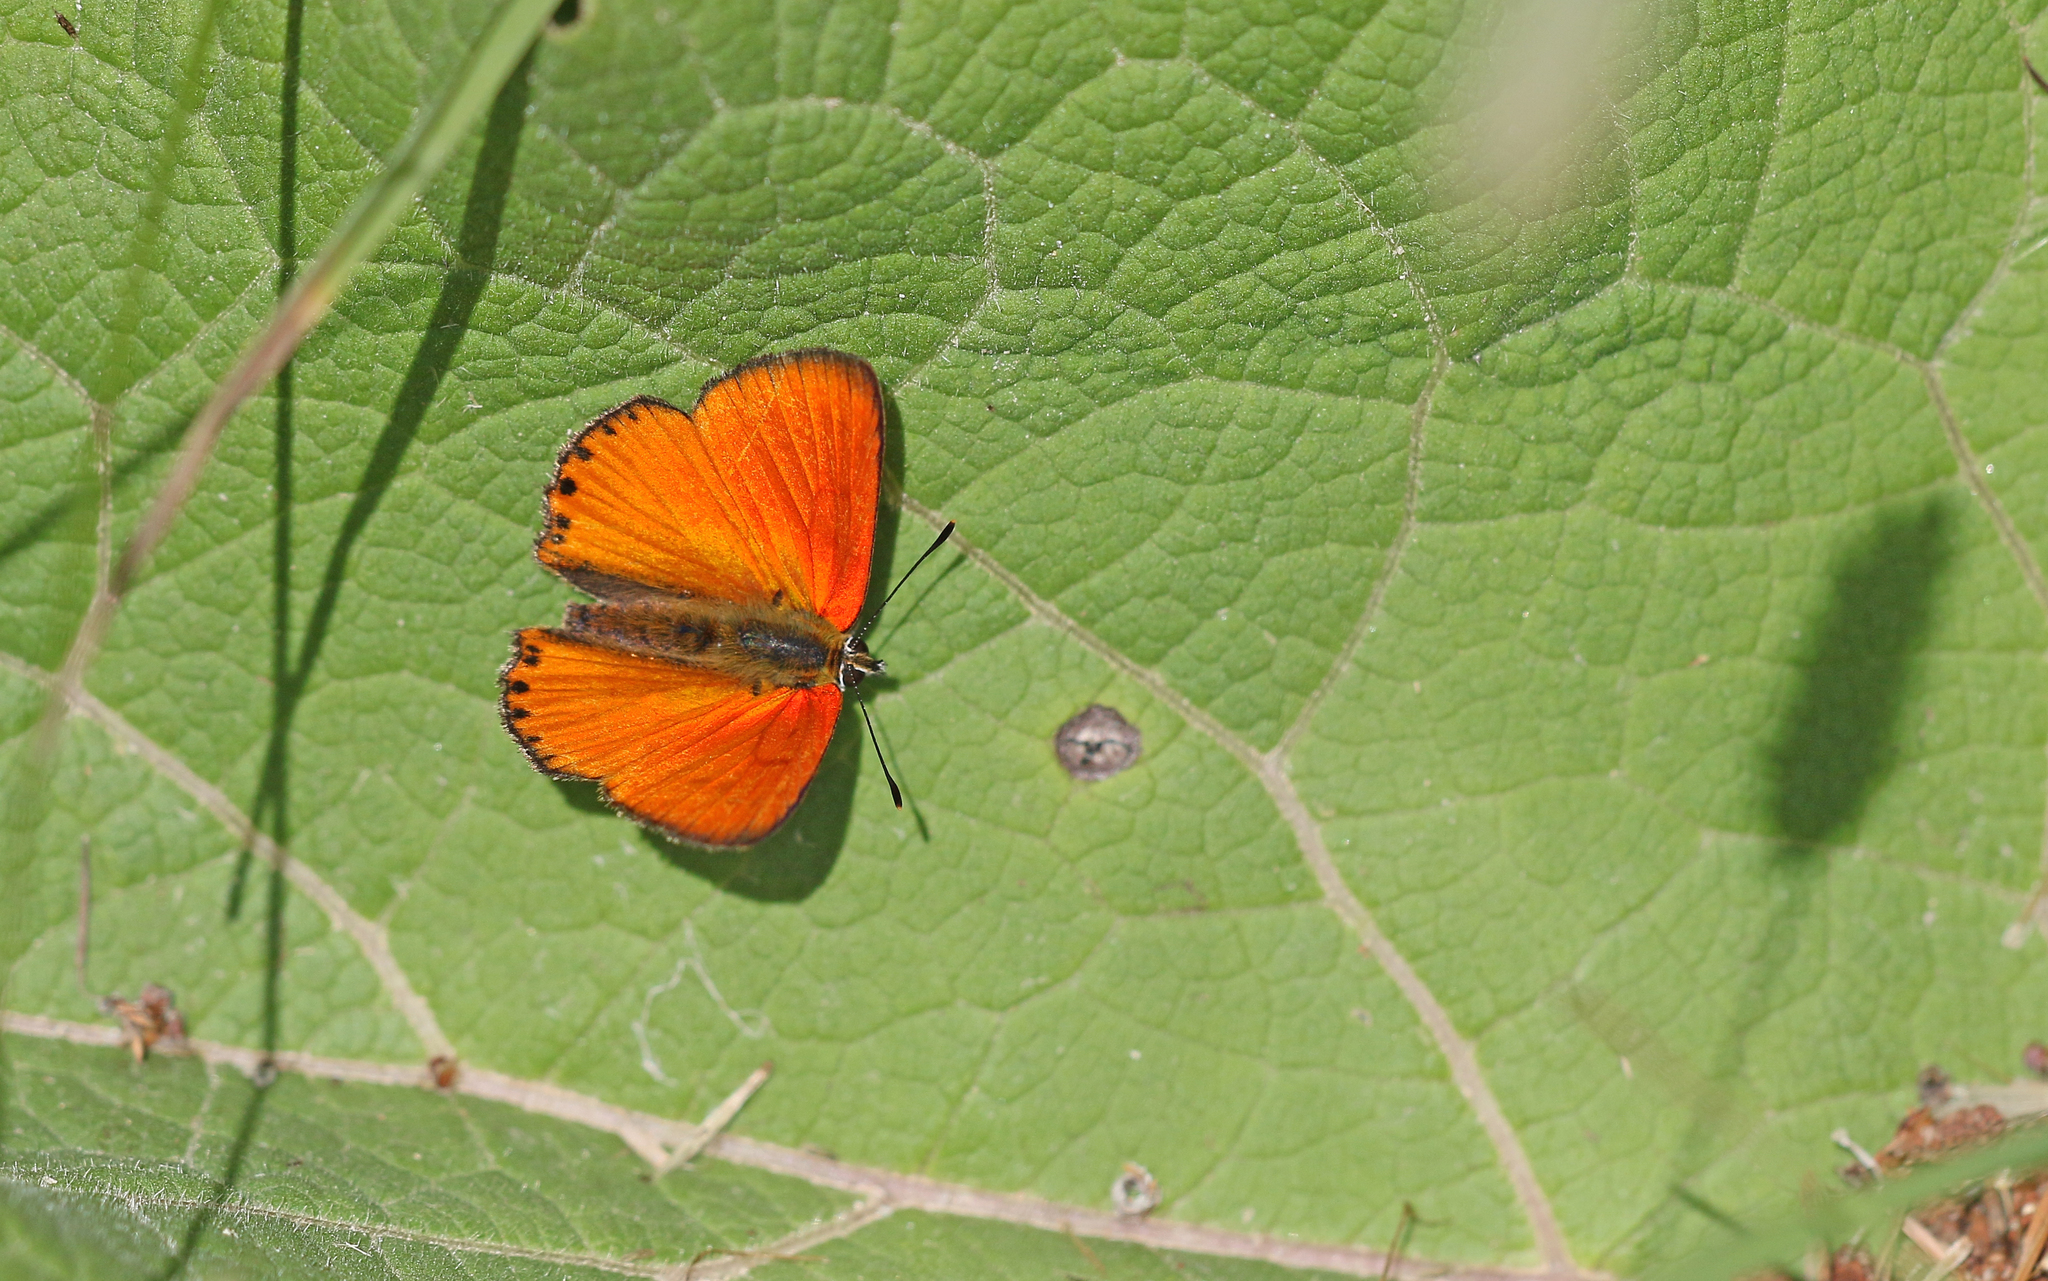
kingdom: Animalia
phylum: Arthropoda
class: Insecta
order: Lepidoptera
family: Lycaenidae
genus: Lycaena
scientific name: Lycaena virgaureae
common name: Scarce copper
